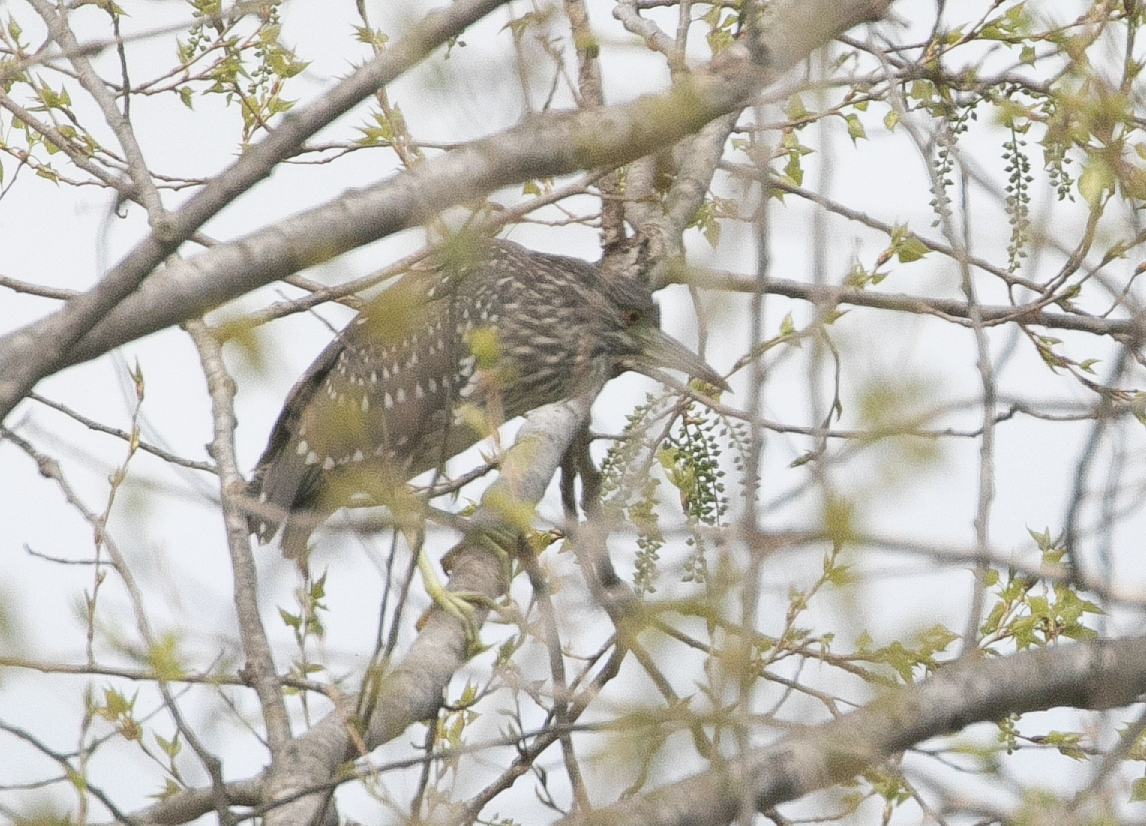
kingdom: Animalia
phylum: Chordata
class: Aves
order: Pelecaniformes
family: Ardeidae
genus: Nycticorax
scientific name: Nycticorax nycticorax
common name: Black-crowned night heron
